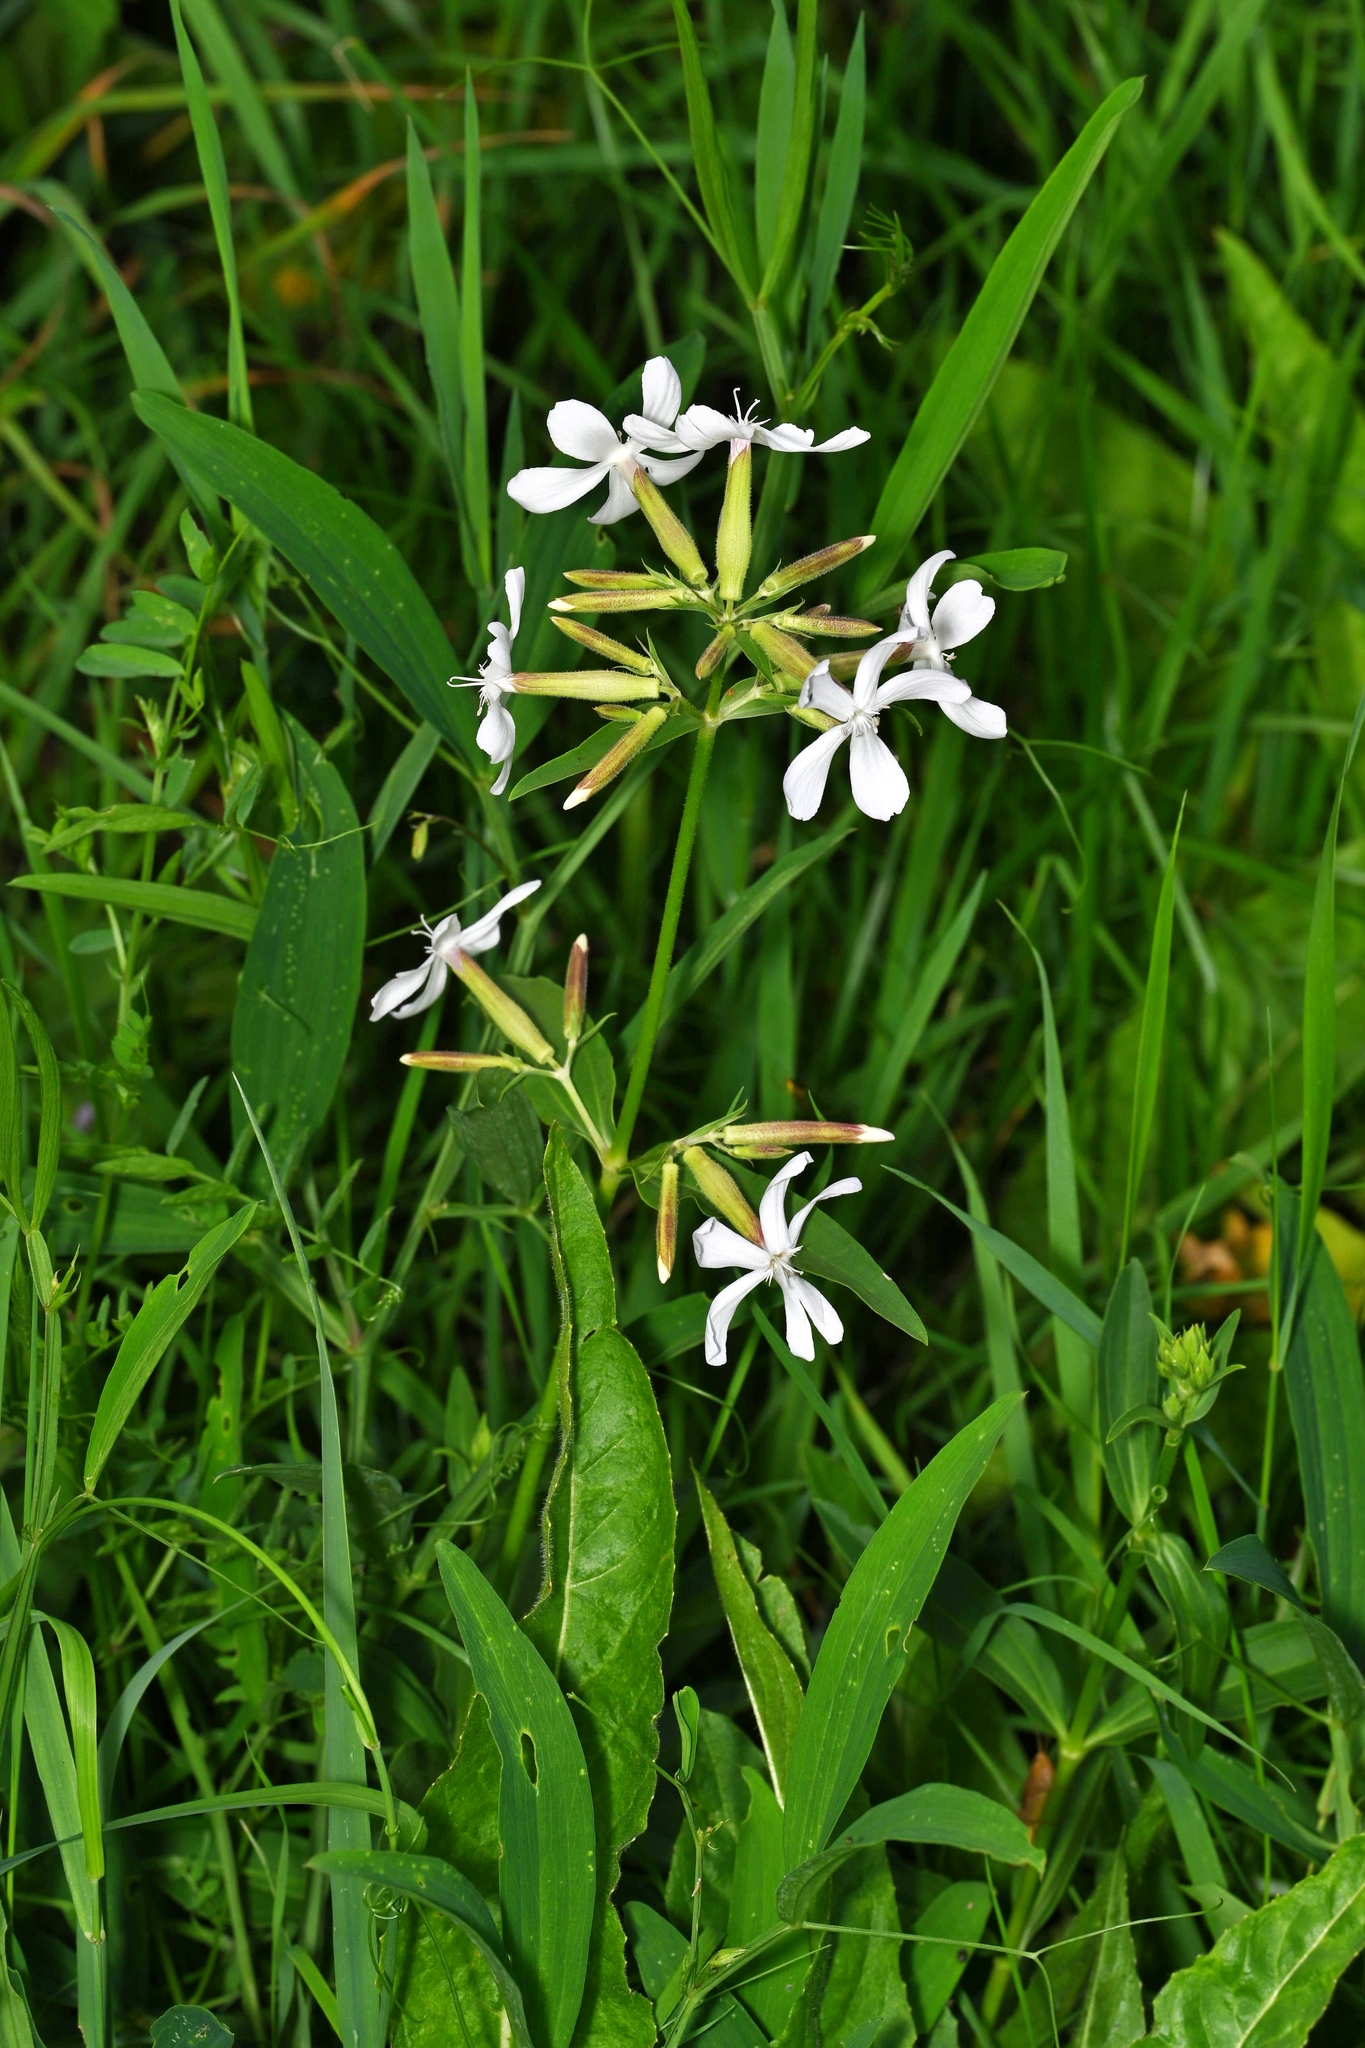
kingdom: Plantae
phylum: Tracheophyta
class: Magnoliopsida
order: Caryophyllales
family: Caryophyllaceae
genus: Saponaria
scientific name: Saponaria officinalis
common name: Soapwort
